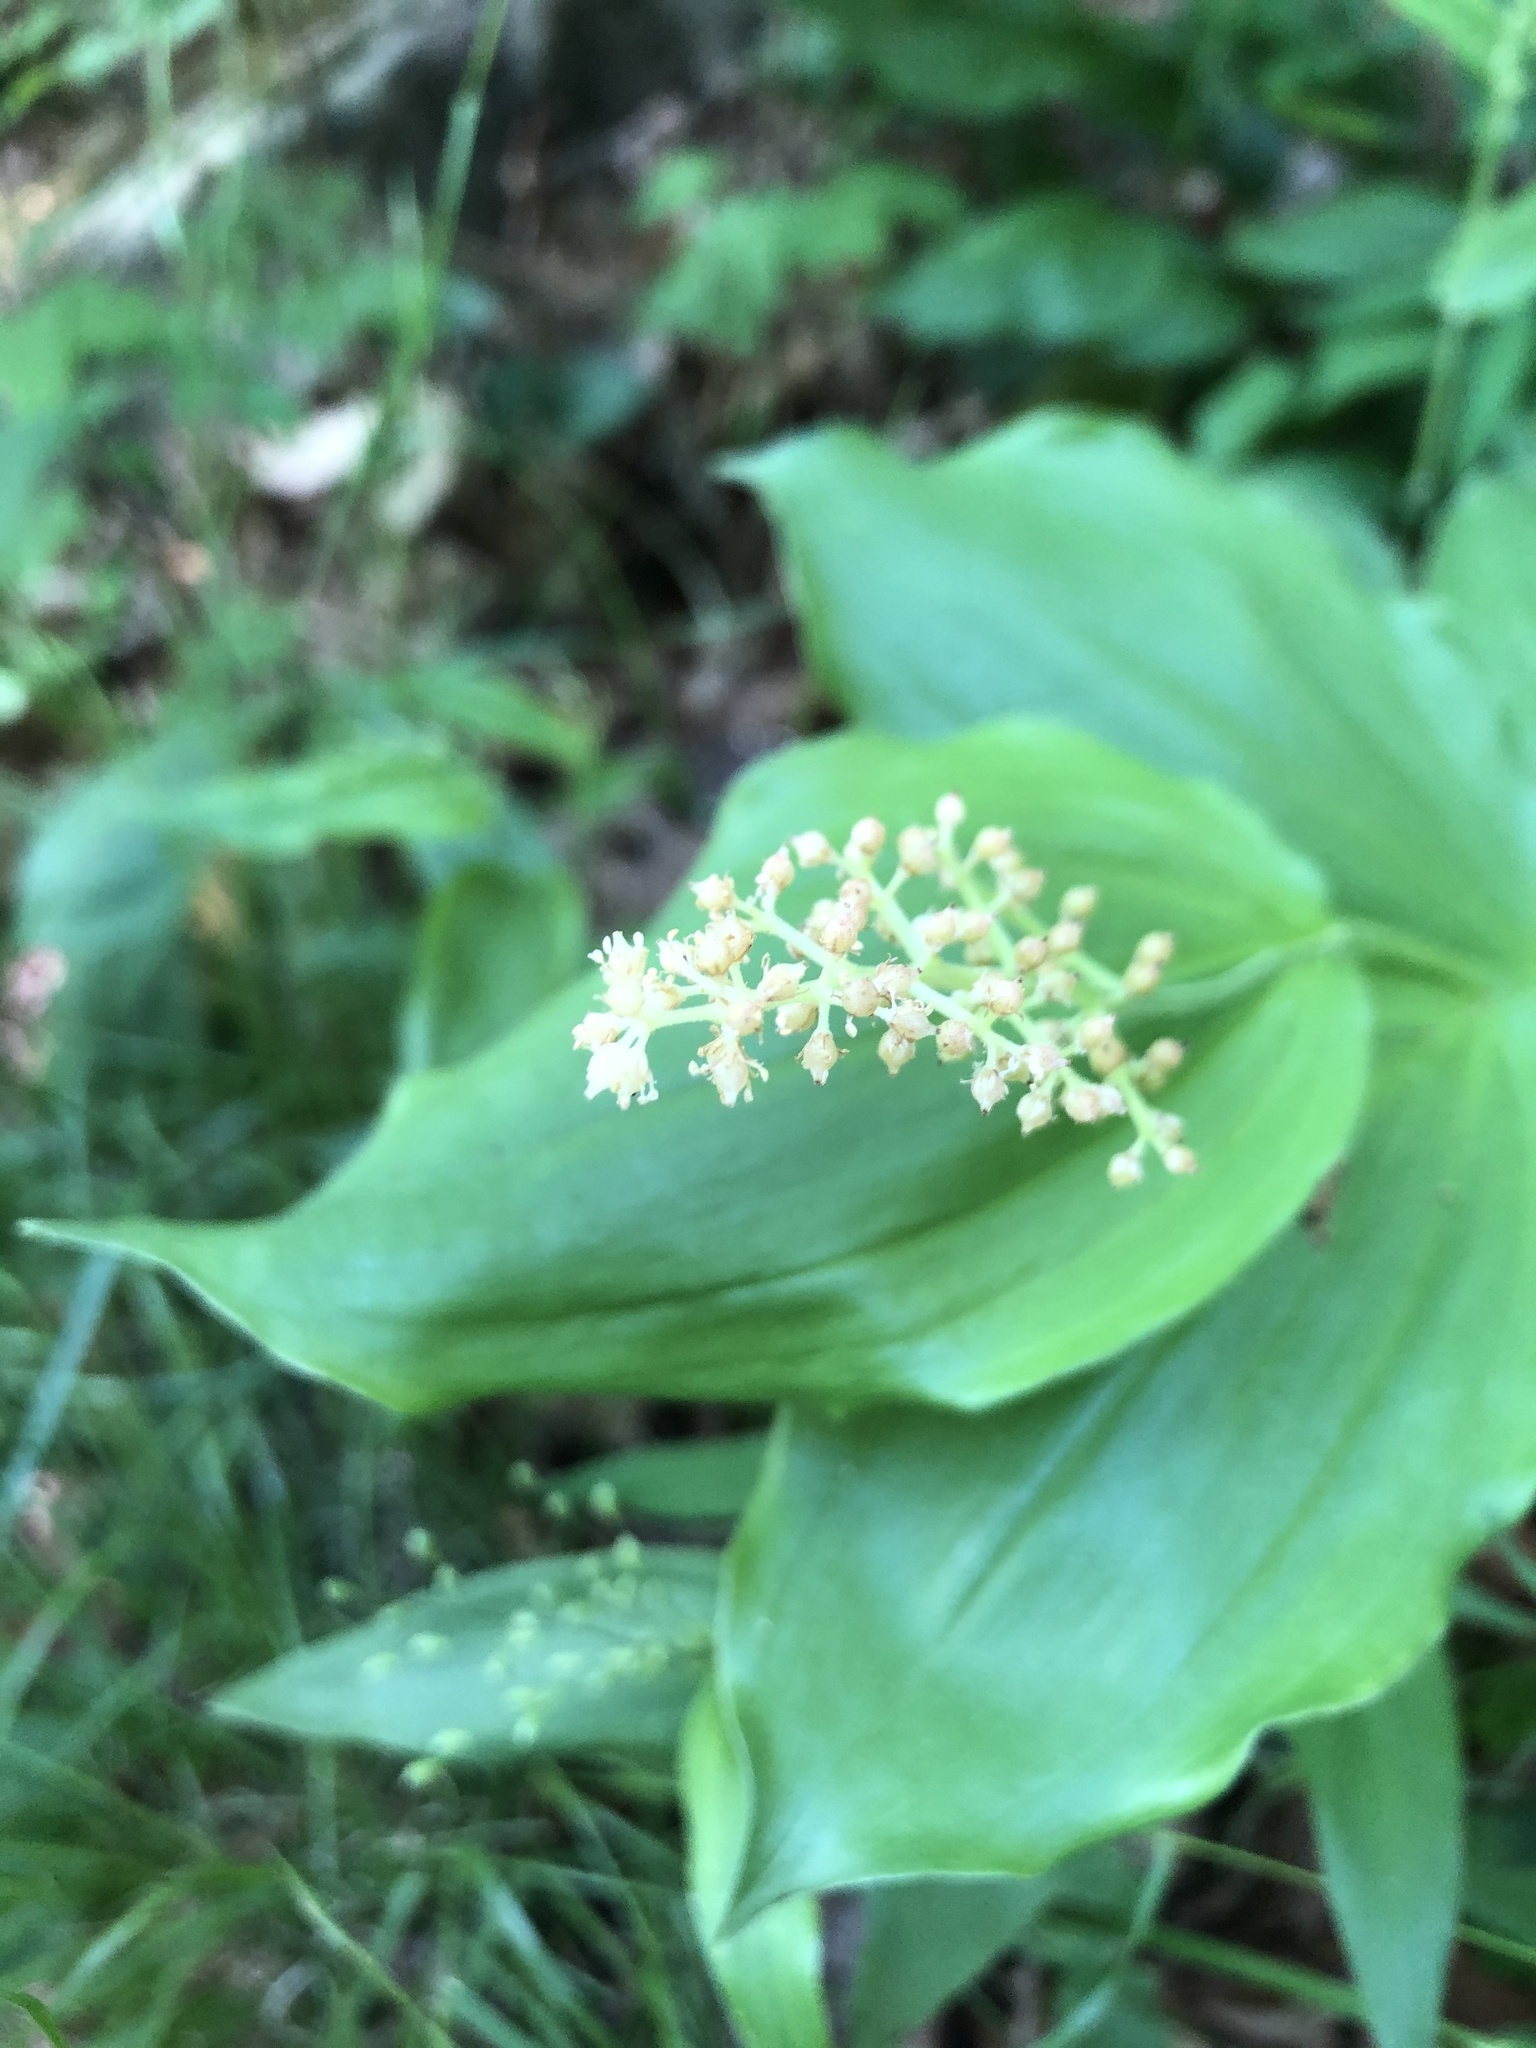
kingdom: Plantae
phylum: Tracheophyta
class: Liliopsida
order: Asparagales
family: Asparagaceae
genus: Maianthemum
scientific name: Maianthemum racemosum
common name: False spikenard
